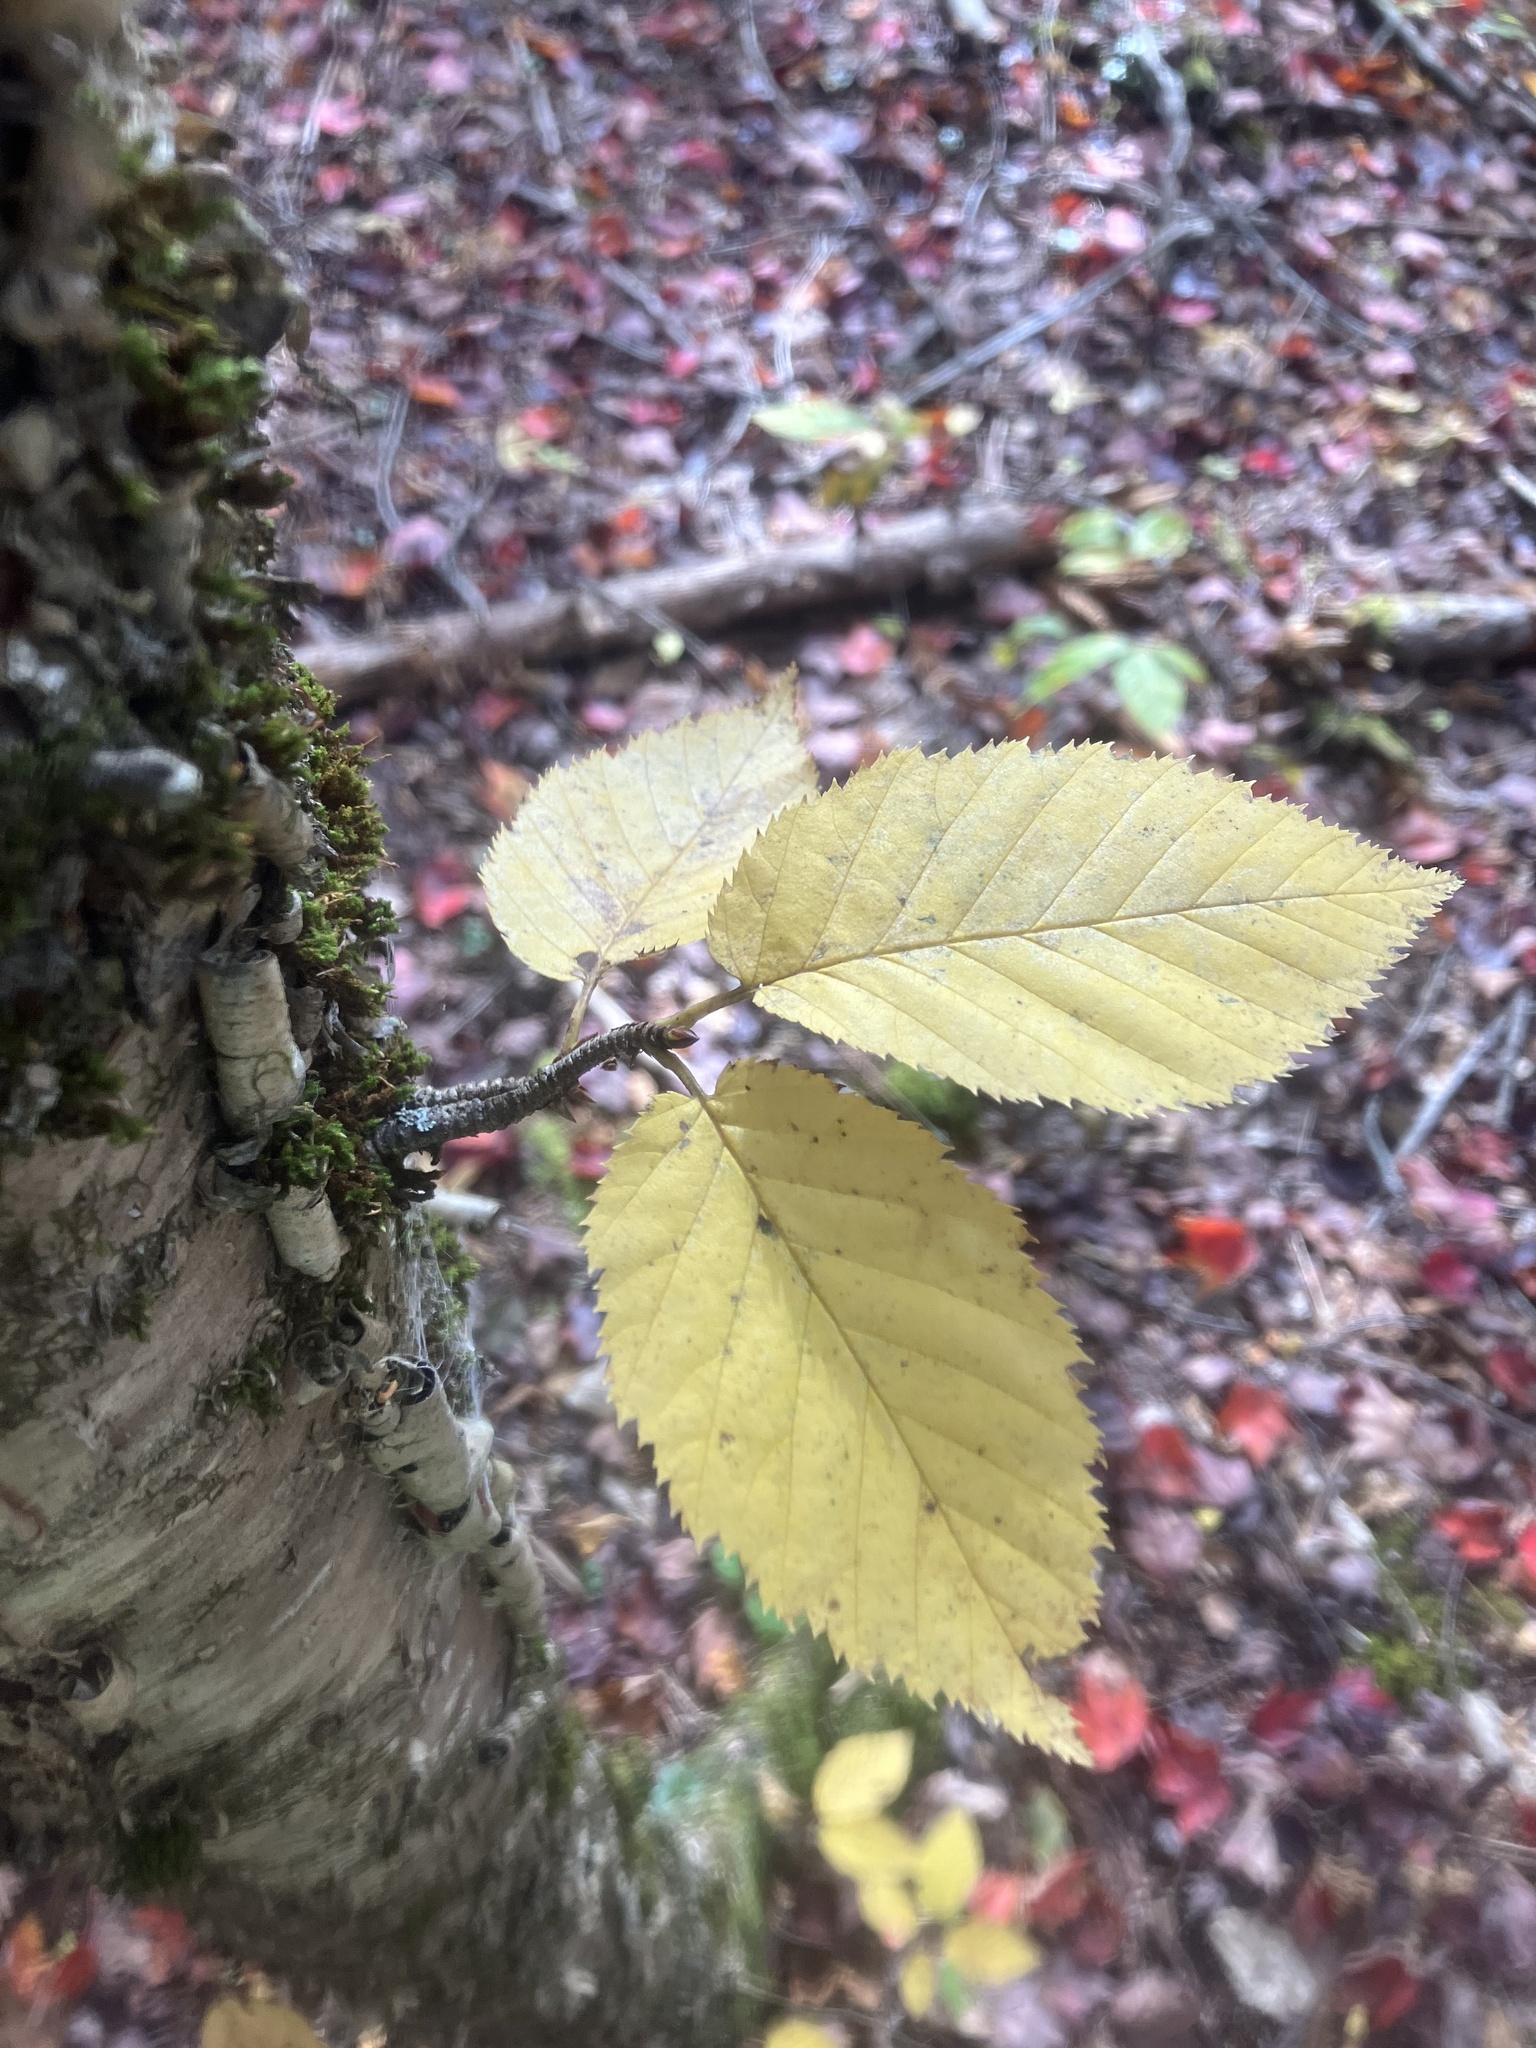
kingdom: Plantae
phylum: Tracheophyta
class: Magnoliopsida
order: Fagales
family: Betulaceae
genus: Betula
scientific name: Betula alleghaniensis
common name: Yellow birch
